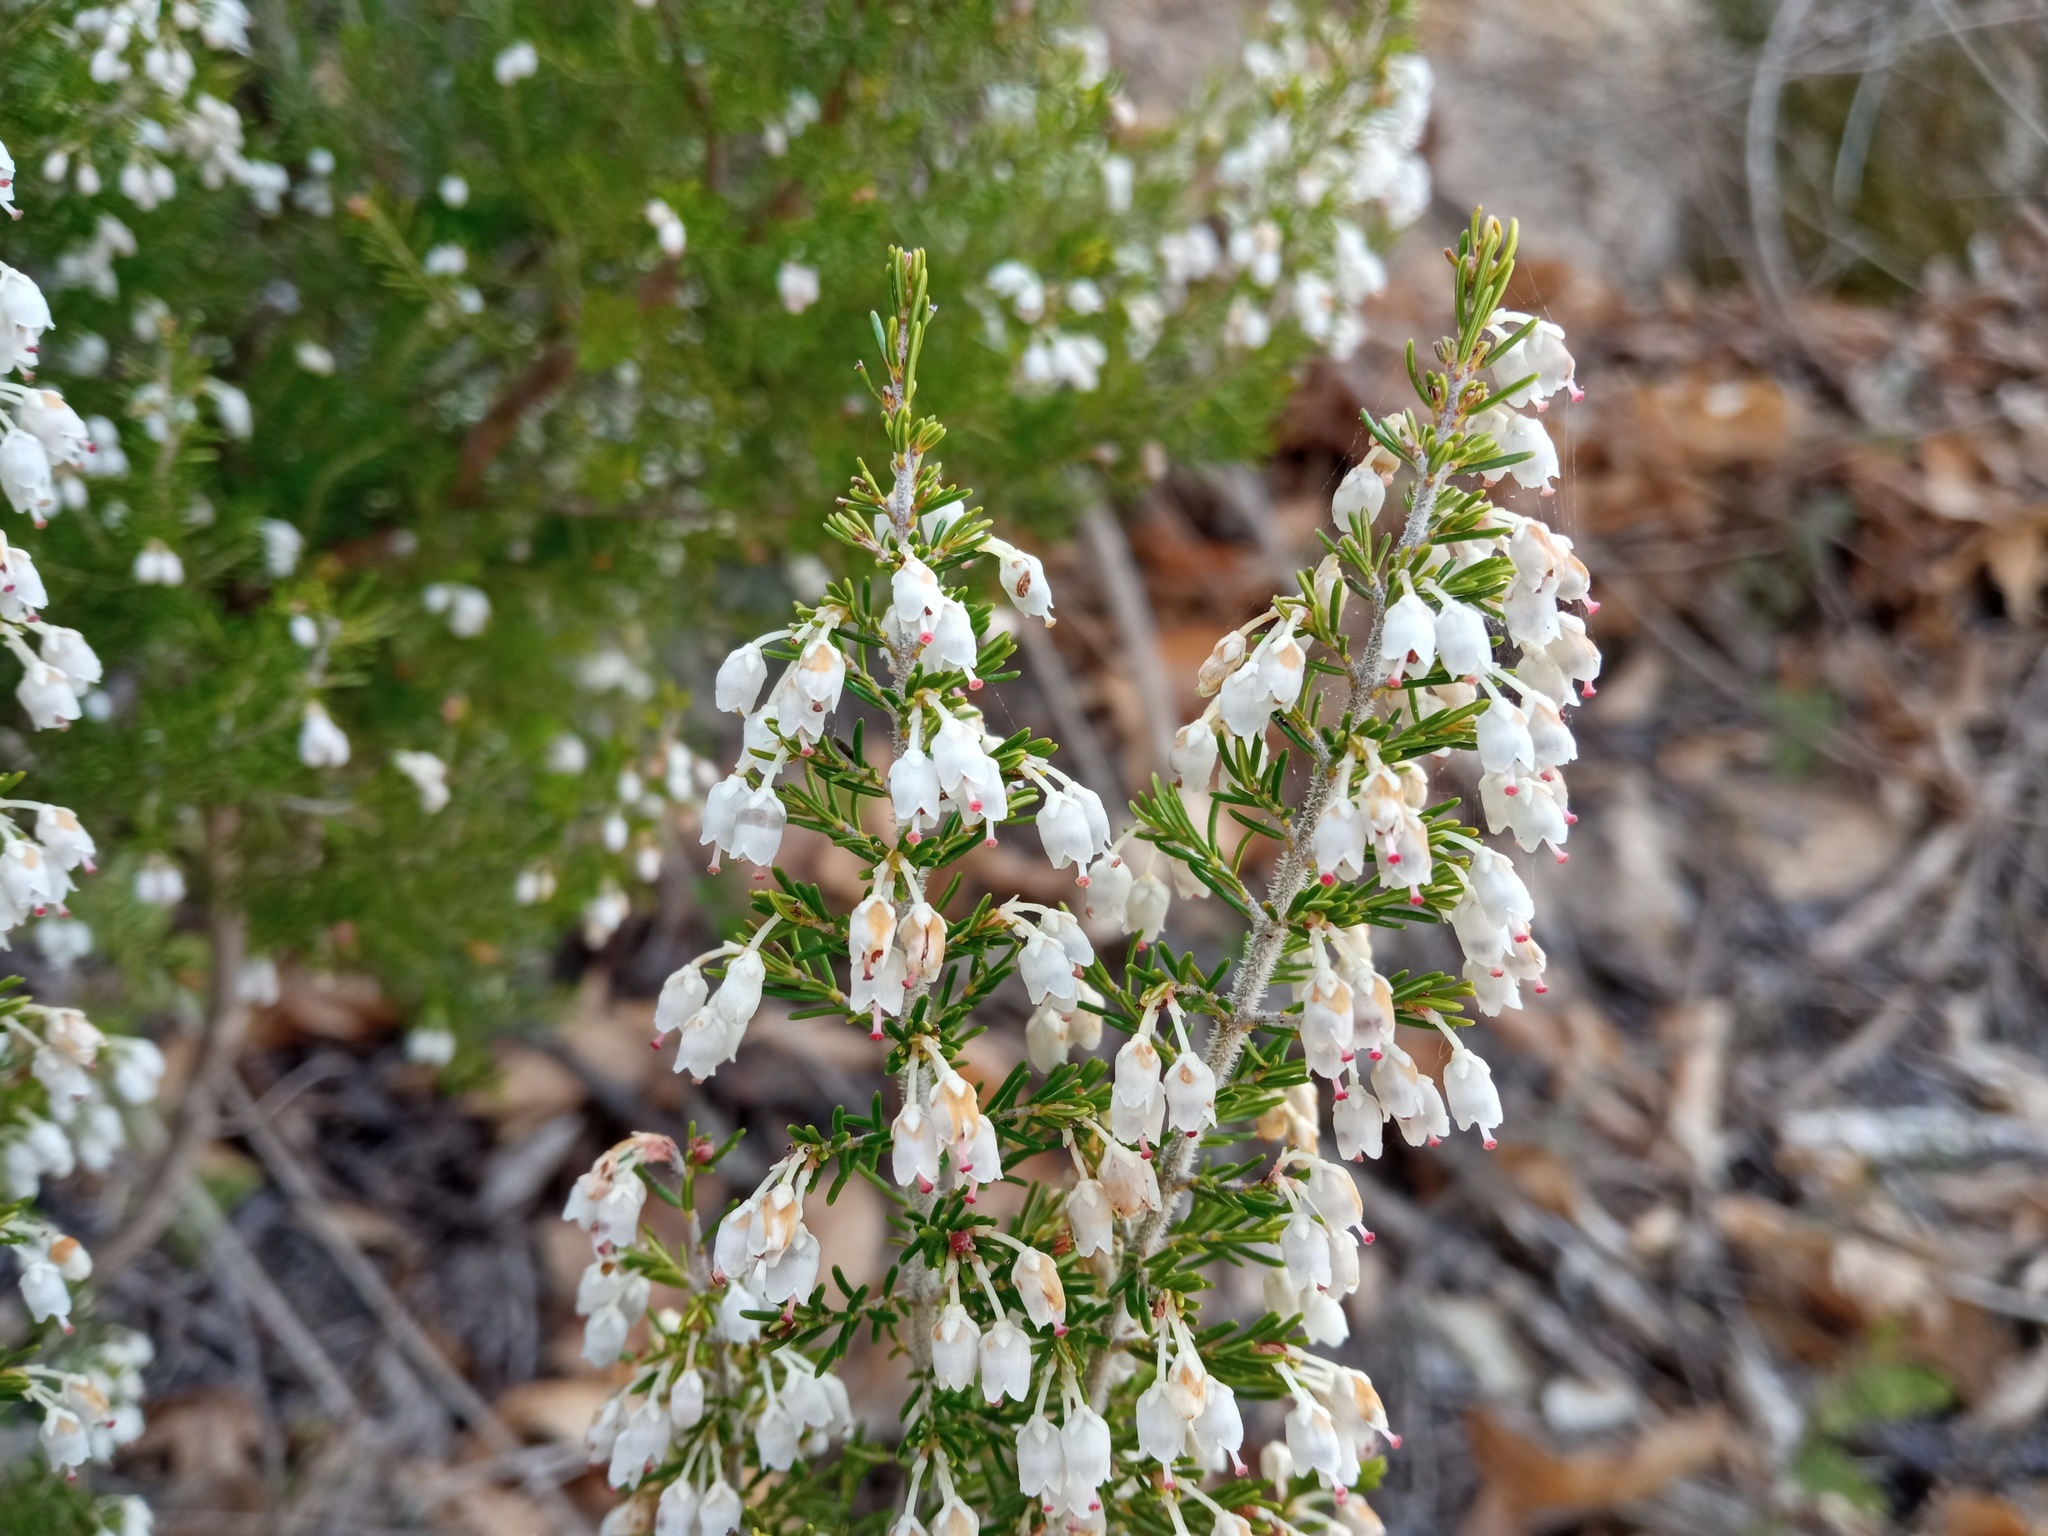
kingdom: Plantae
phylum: Tracheophyta
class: Magnoliopsida
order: Ericales
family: Ericaceae
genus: Erica
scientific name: Erica arborea
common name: Tree heath
